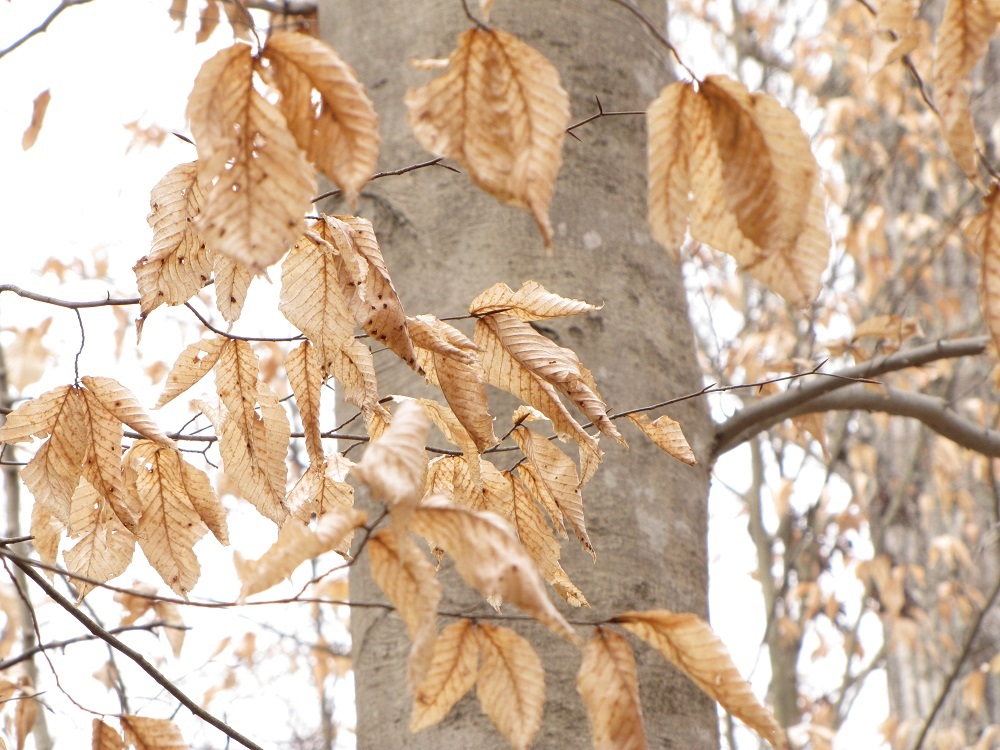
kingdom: Plantae
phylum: Tracheophyta
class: Magnoliopsida
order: Fagales
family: Fagaceae
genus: Fagus
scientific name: Fagus grandifolia
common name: American beech
